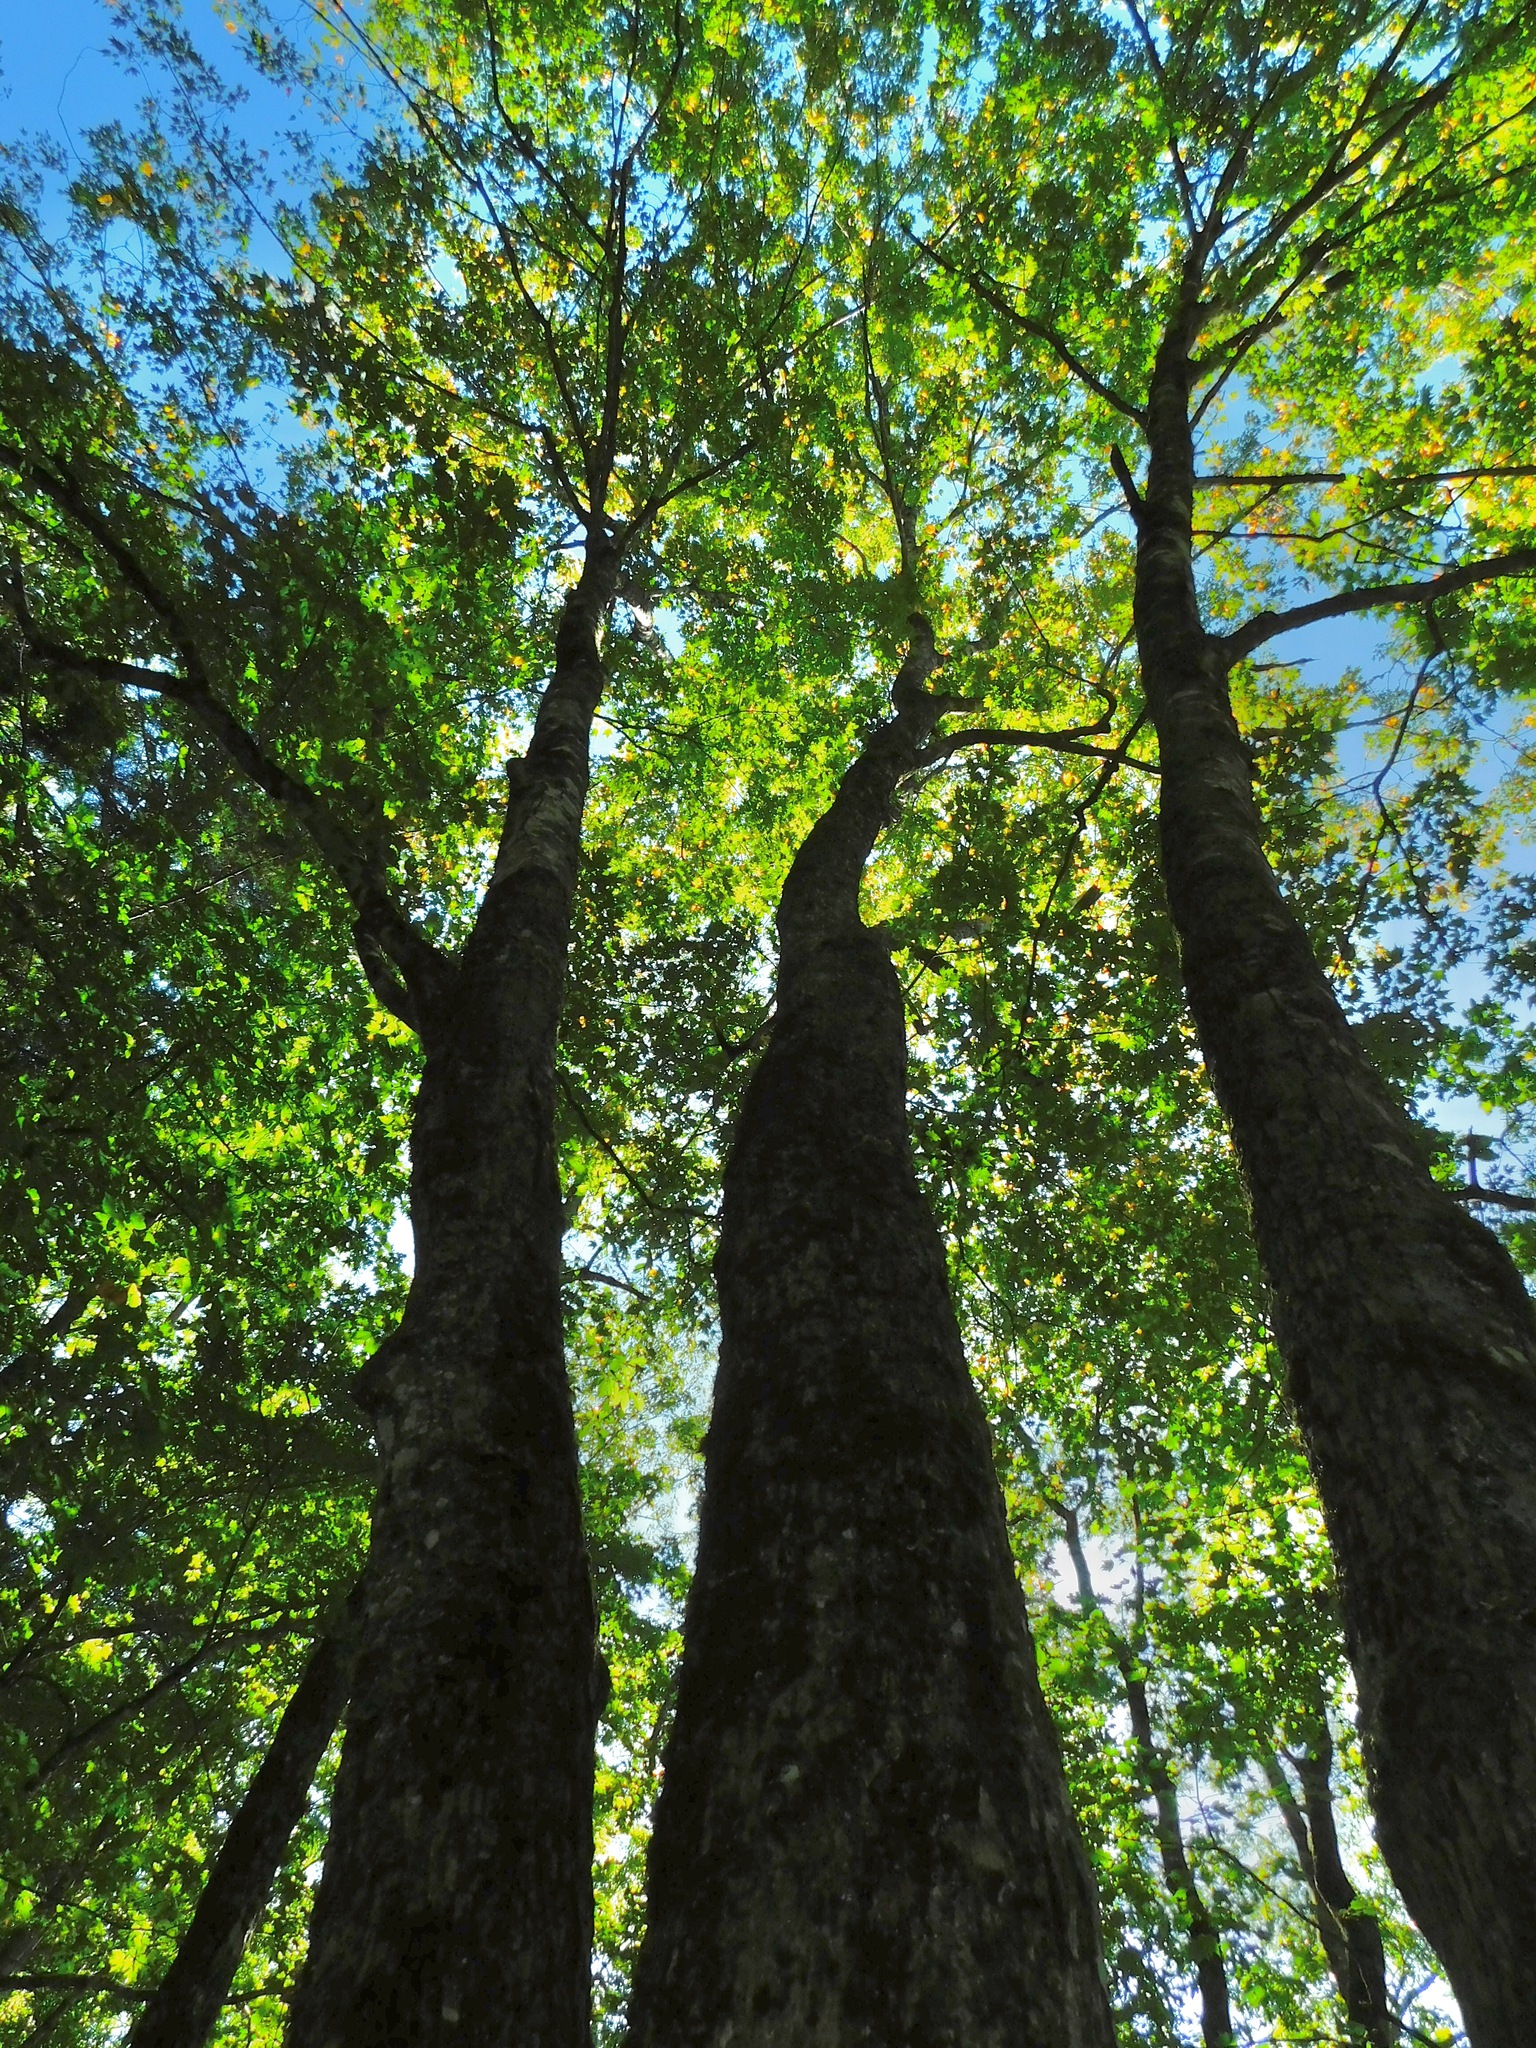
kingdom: Plantae
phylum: Tracheophyta
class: Magnoliopsida
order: Sapindales
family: Sapindaceae
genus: Acer
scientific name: Acer freemanii
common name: Freeman maple
